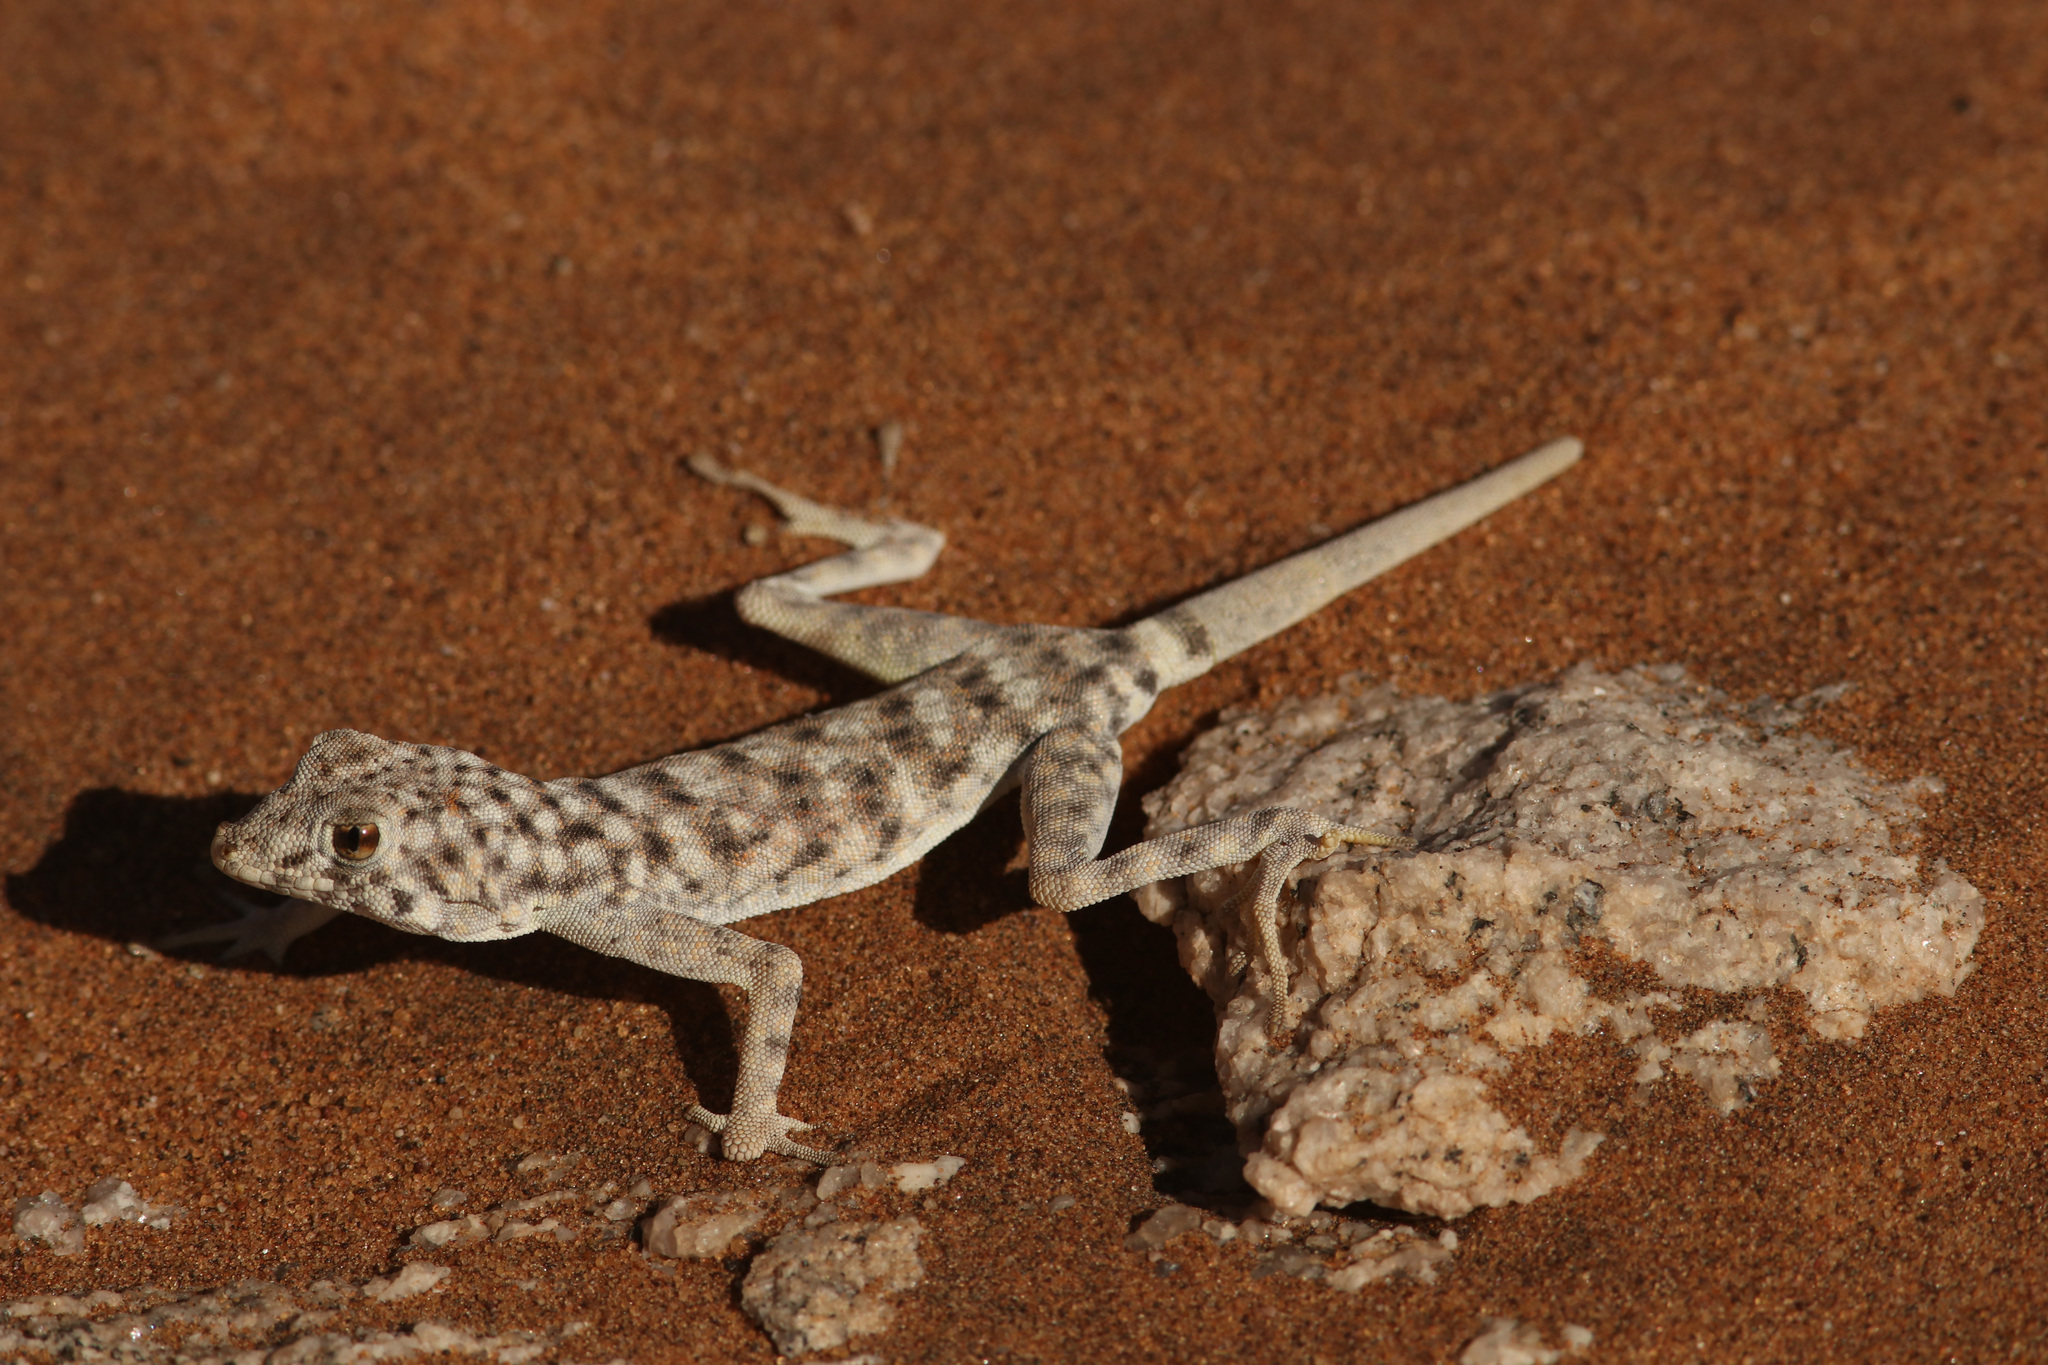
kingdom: Animalia
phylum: Chordata
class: Squamata
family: Gekkonidae
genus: Rhoptropus
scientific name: Rhoptropus afer
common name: Namib day gecko
